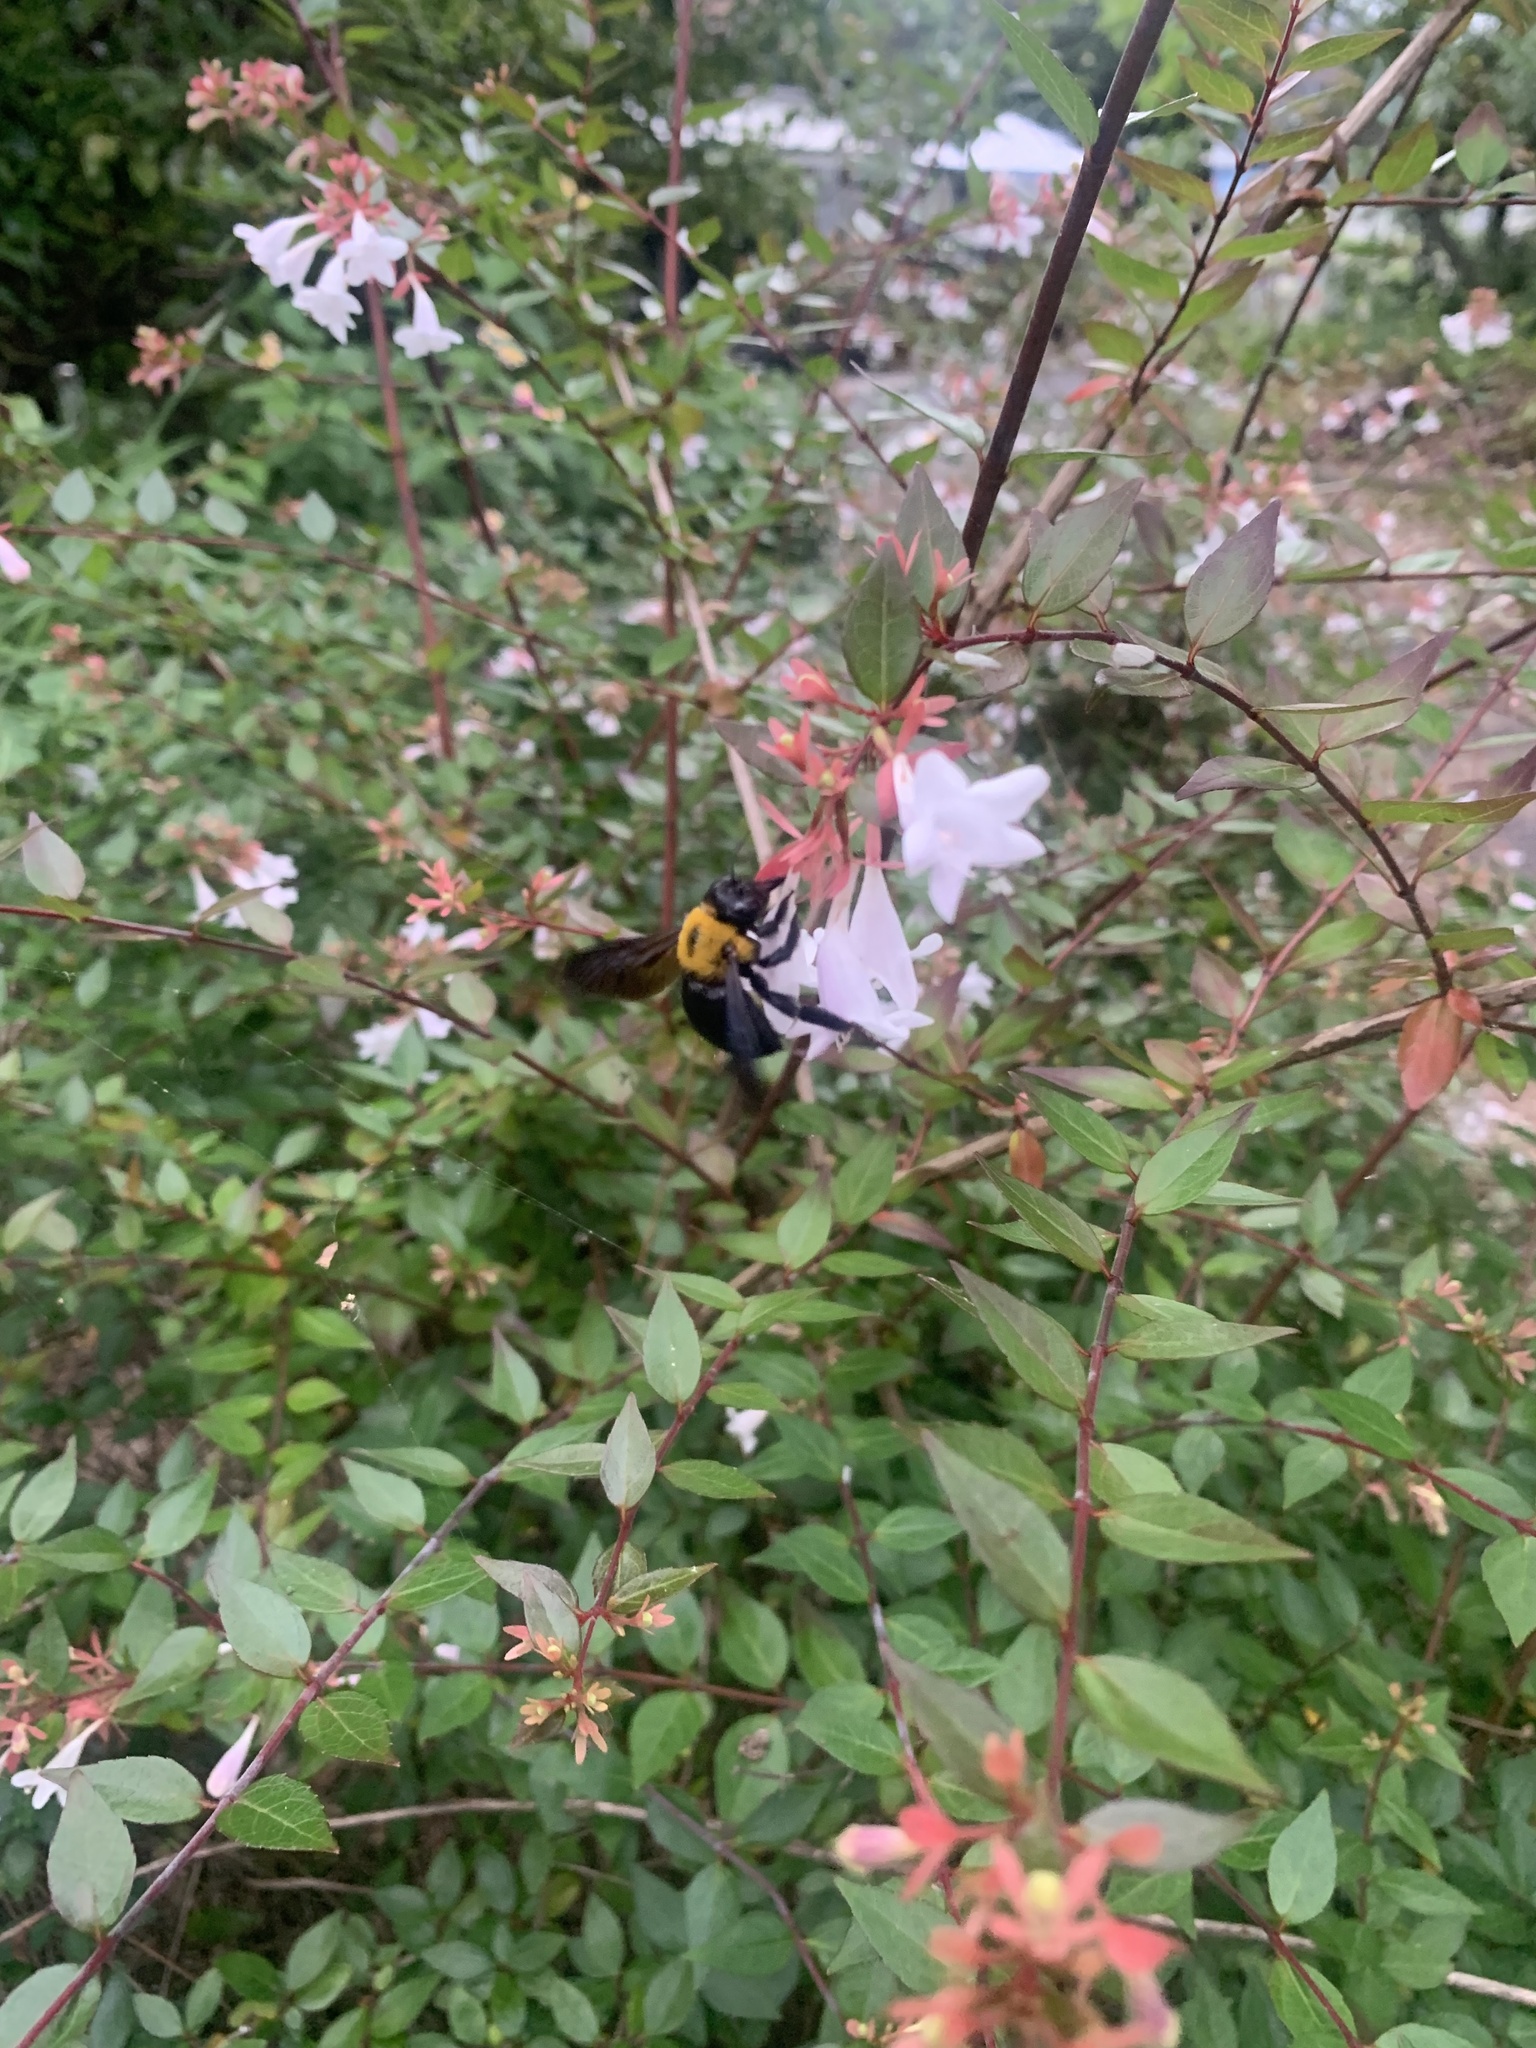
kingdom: Animalia
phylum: Arthropoda
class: Insecta
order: Hymenoptera
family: Apidae
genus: Xylocopa
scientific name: Xylocopa appendiculata
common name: Japanese carpenter bee
